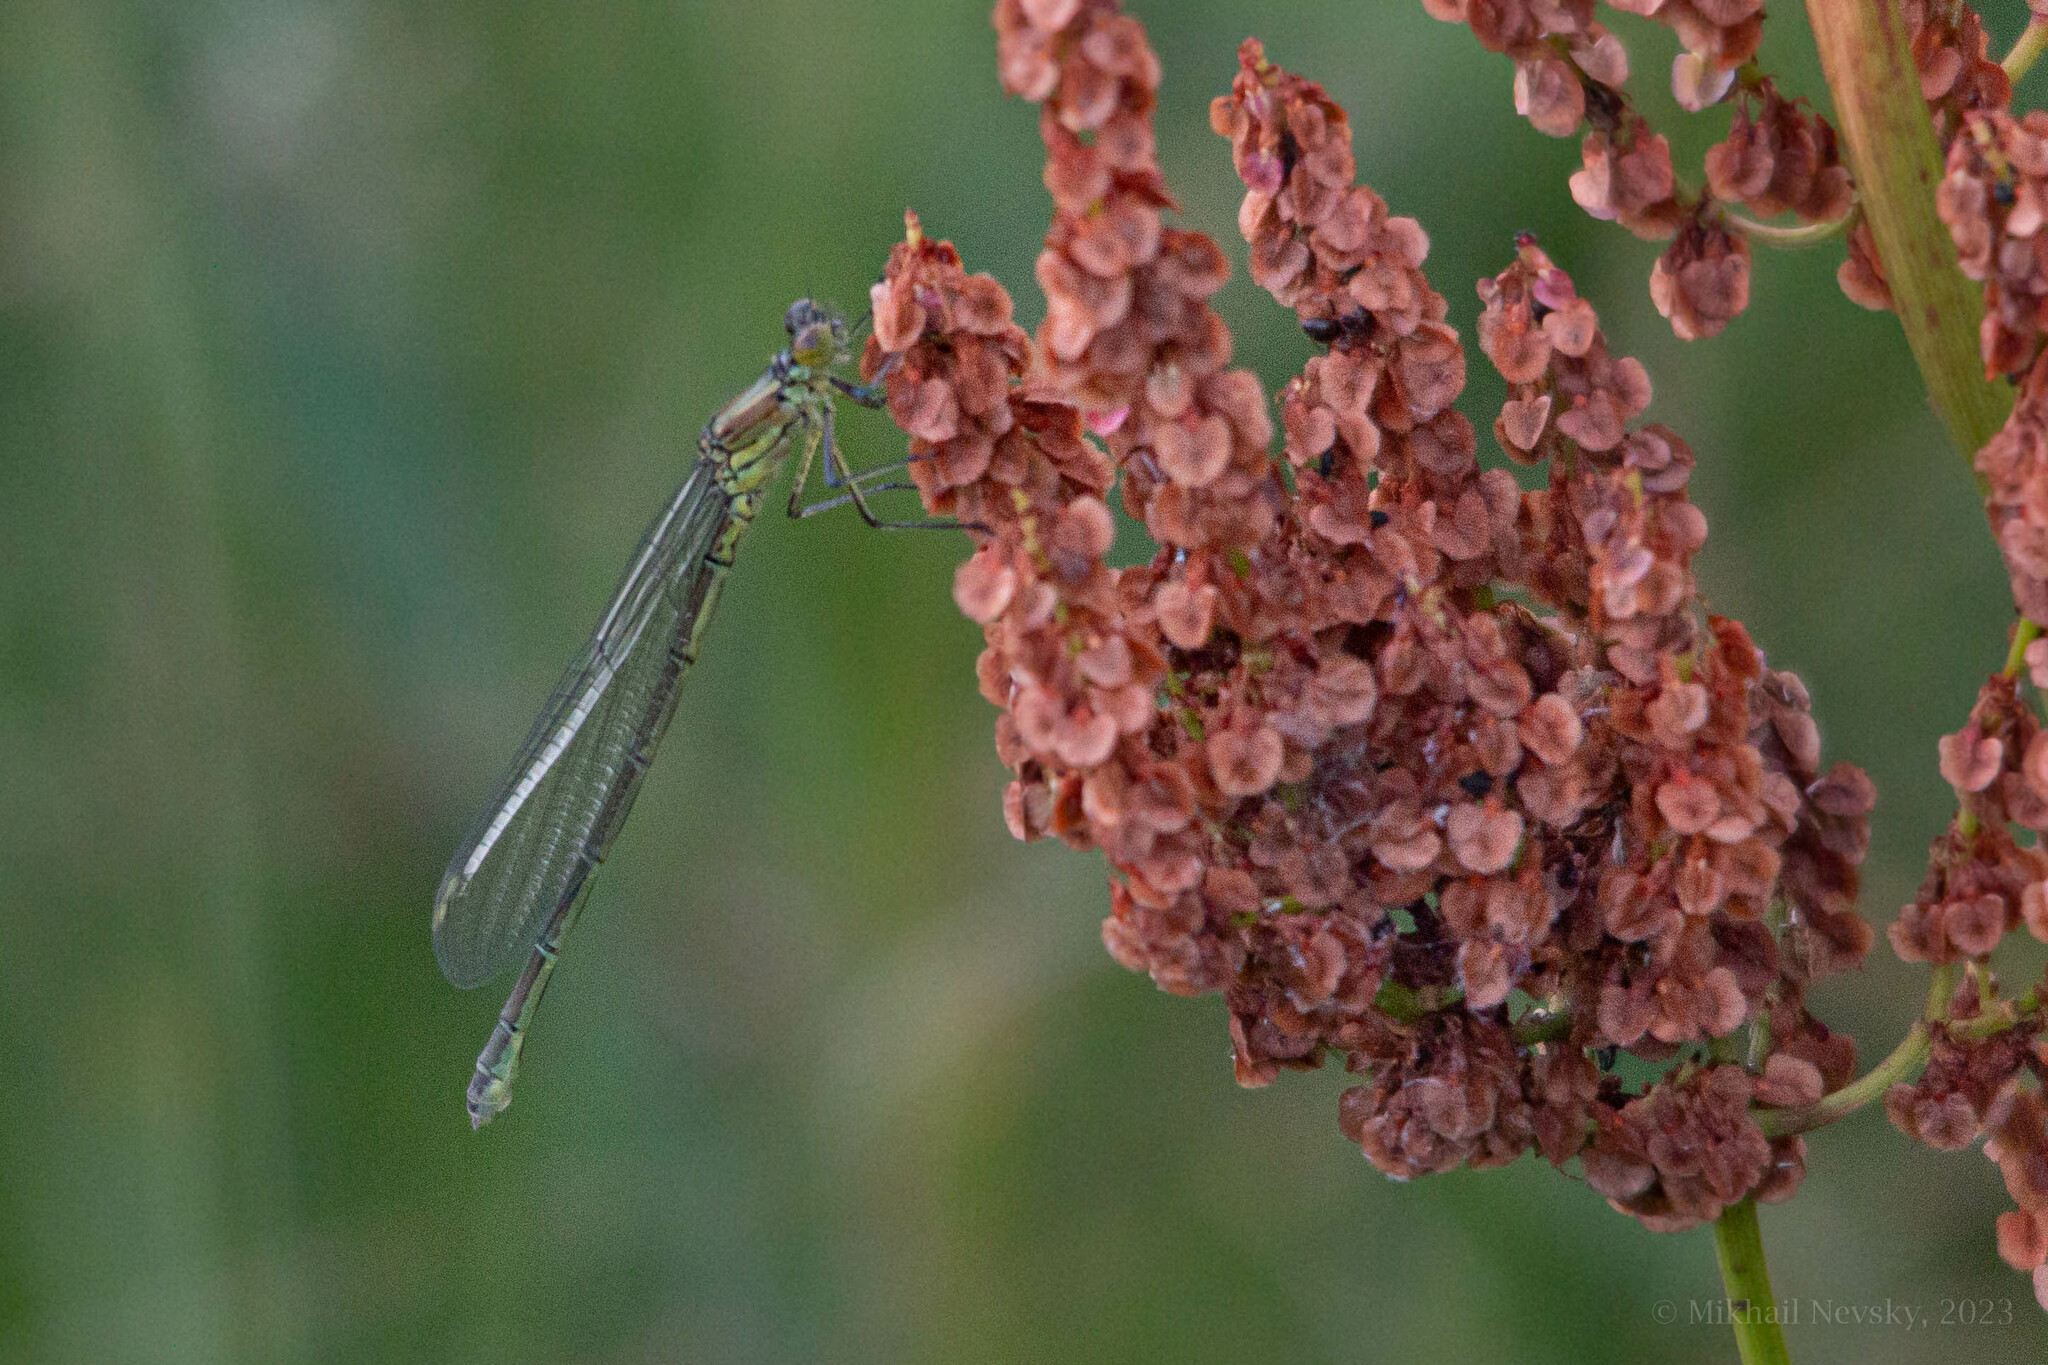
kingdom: Animalia
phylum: Arthropoda
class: Insecta
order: Odonata
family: Coenagrionidae
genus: Erythromma
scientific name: Erythromma najas
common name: Red-eyed damselfly
